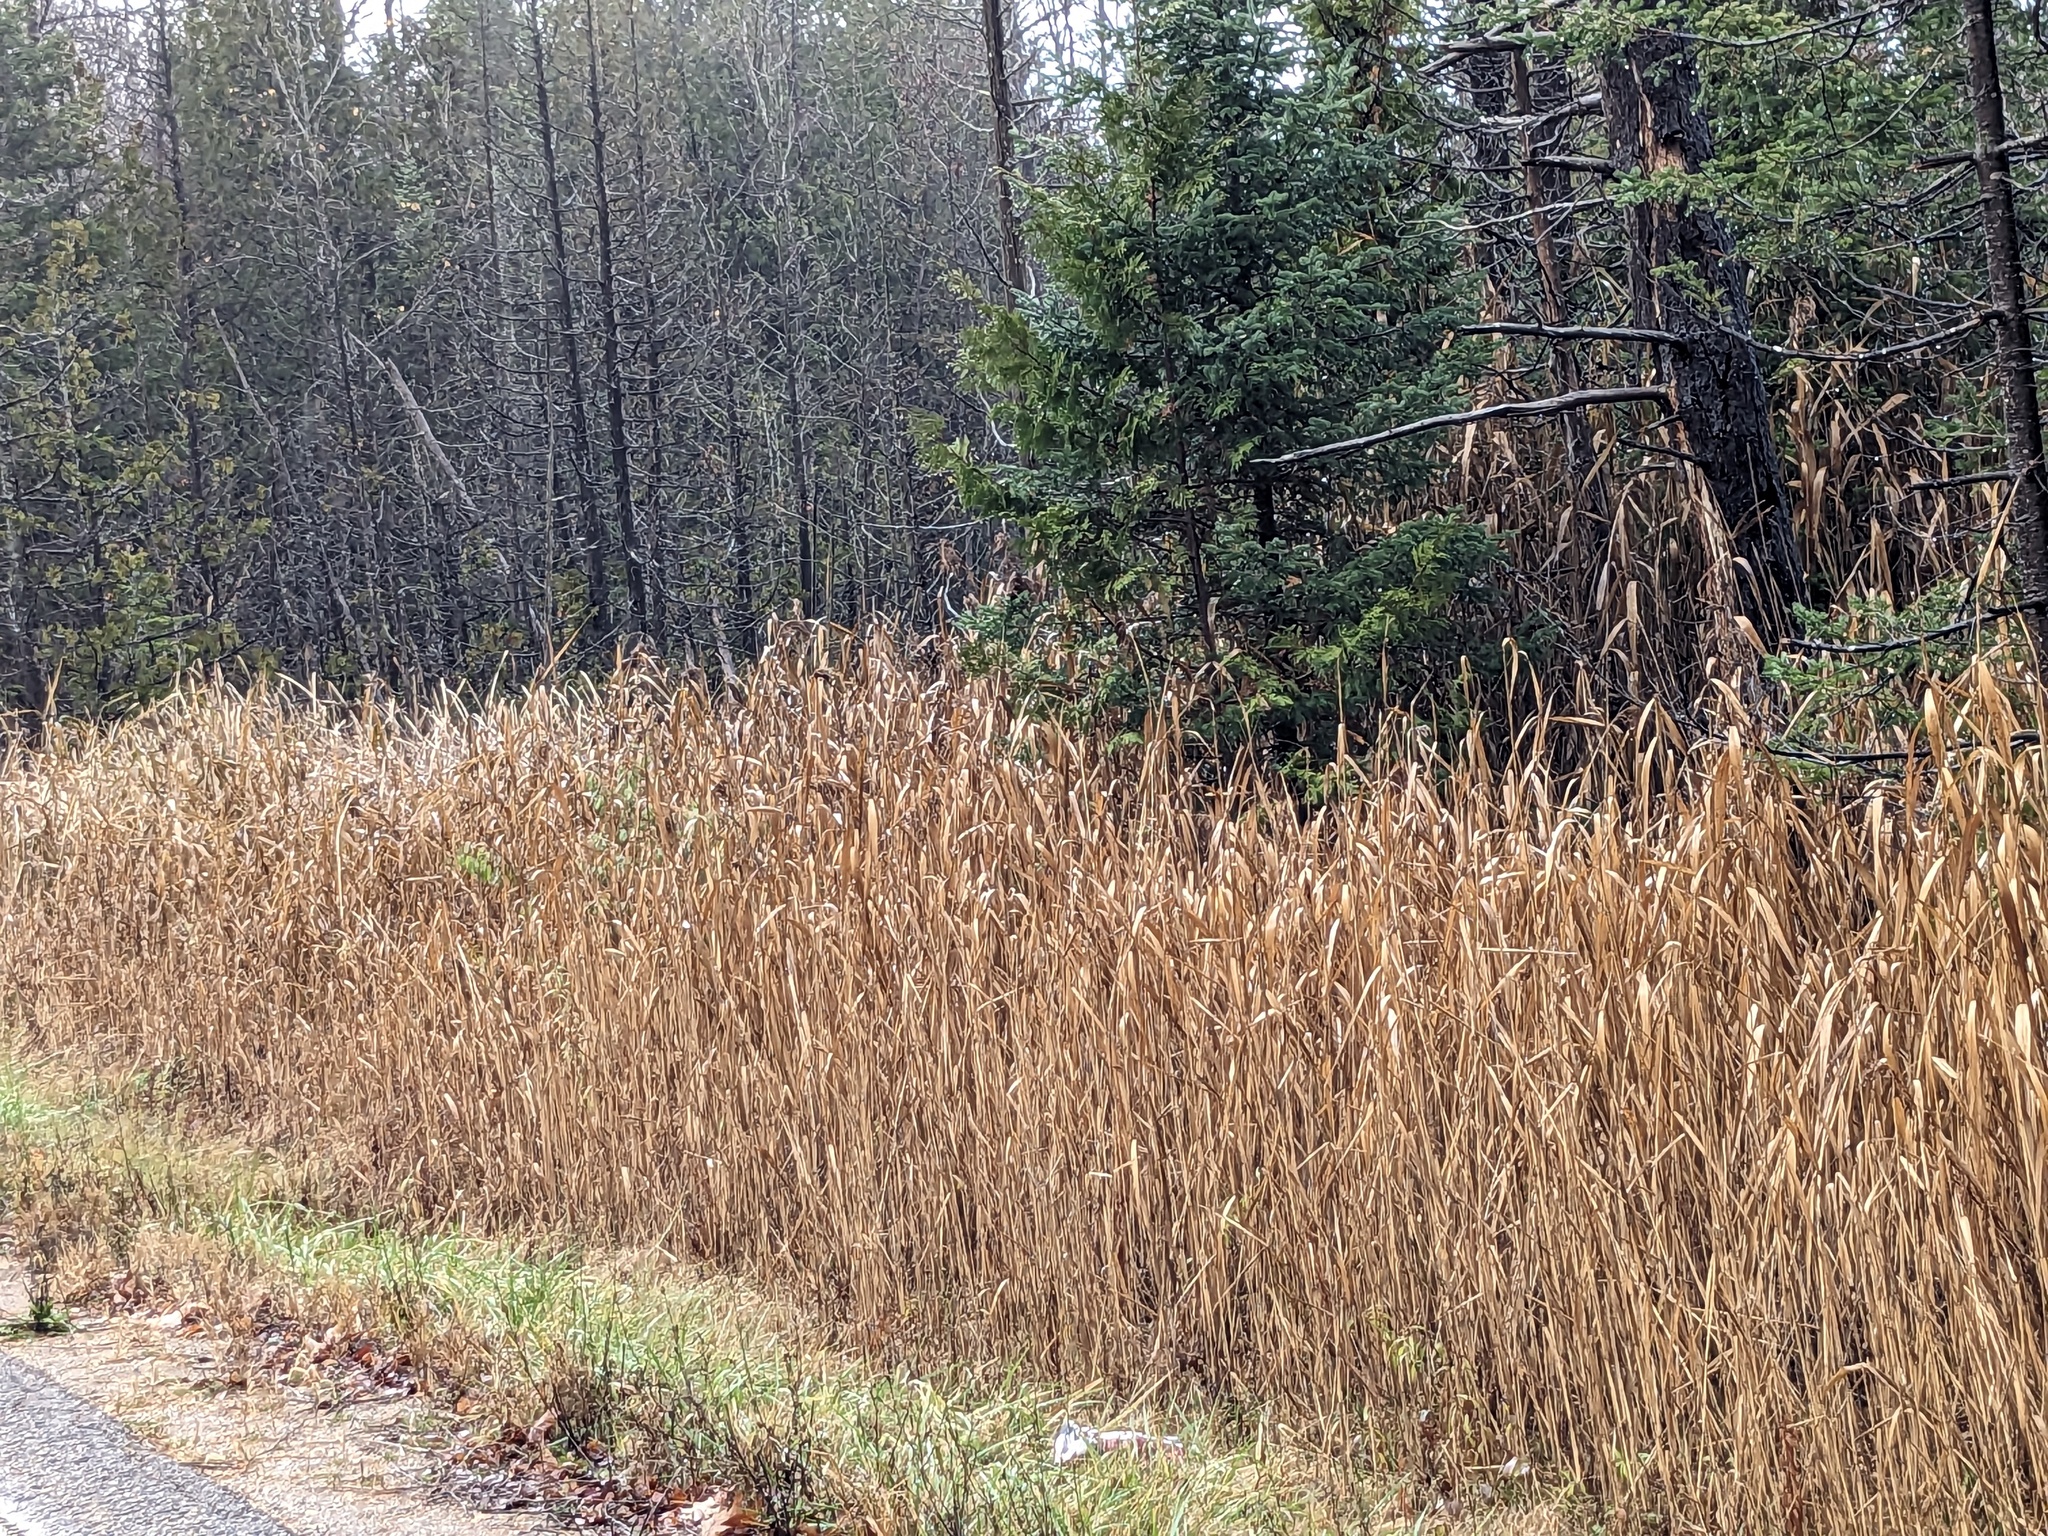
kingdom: Plantae
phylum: Tracheophyta
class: Liliopsida
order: Poales
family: Poaceae
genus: Phragmites
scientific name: Phragmites australis
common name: Common reed
